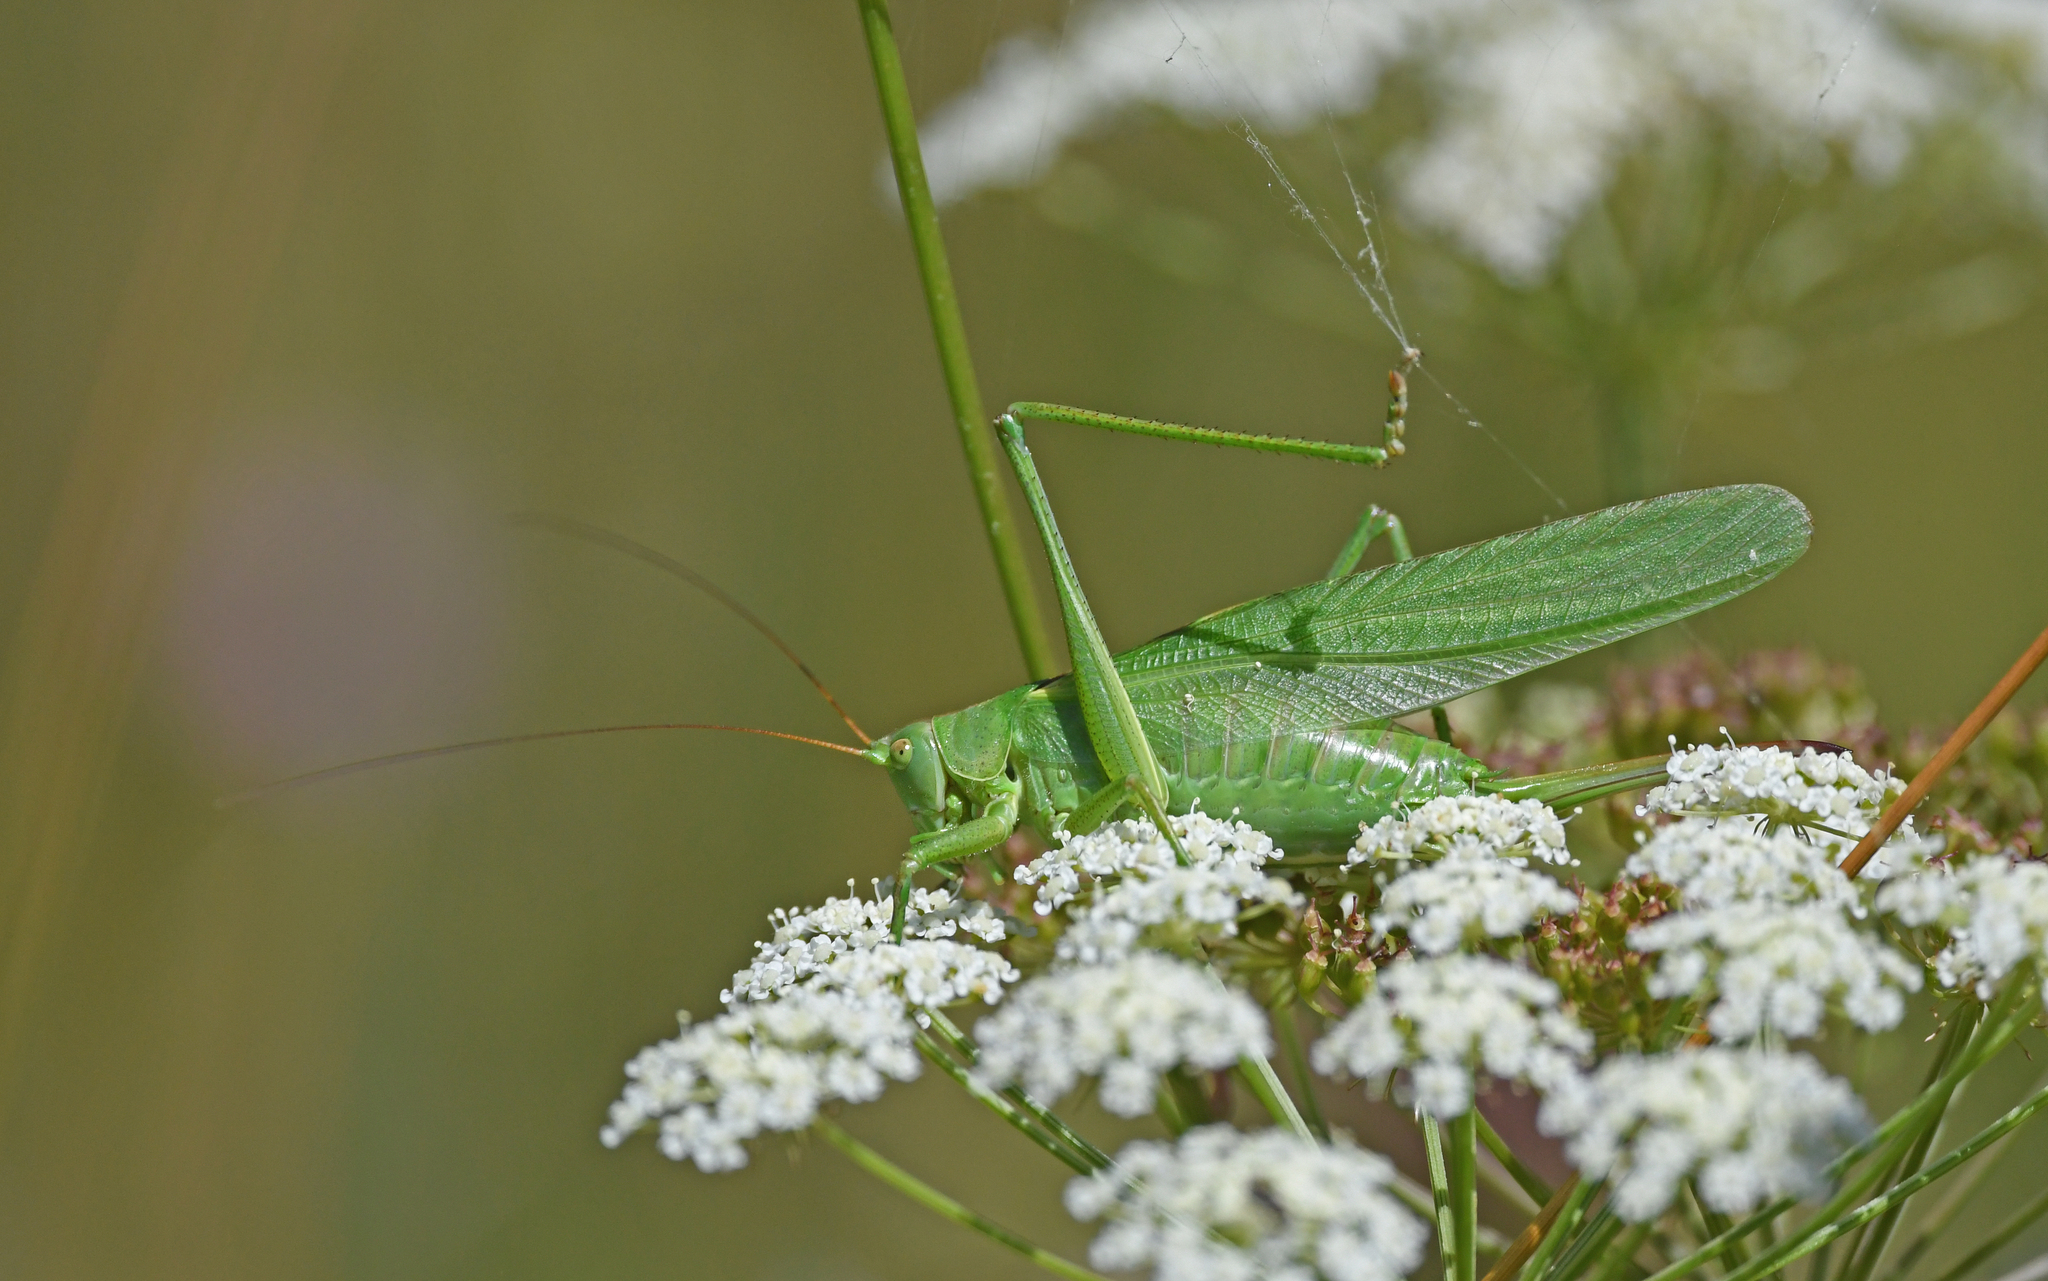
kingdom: Animalia
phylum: Arthropoda
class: Insecta
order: Orthoptera
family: Tettigoniidae
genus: Tettigonia
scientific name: Tettigonia viridissima
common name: Great green bush-cricket
